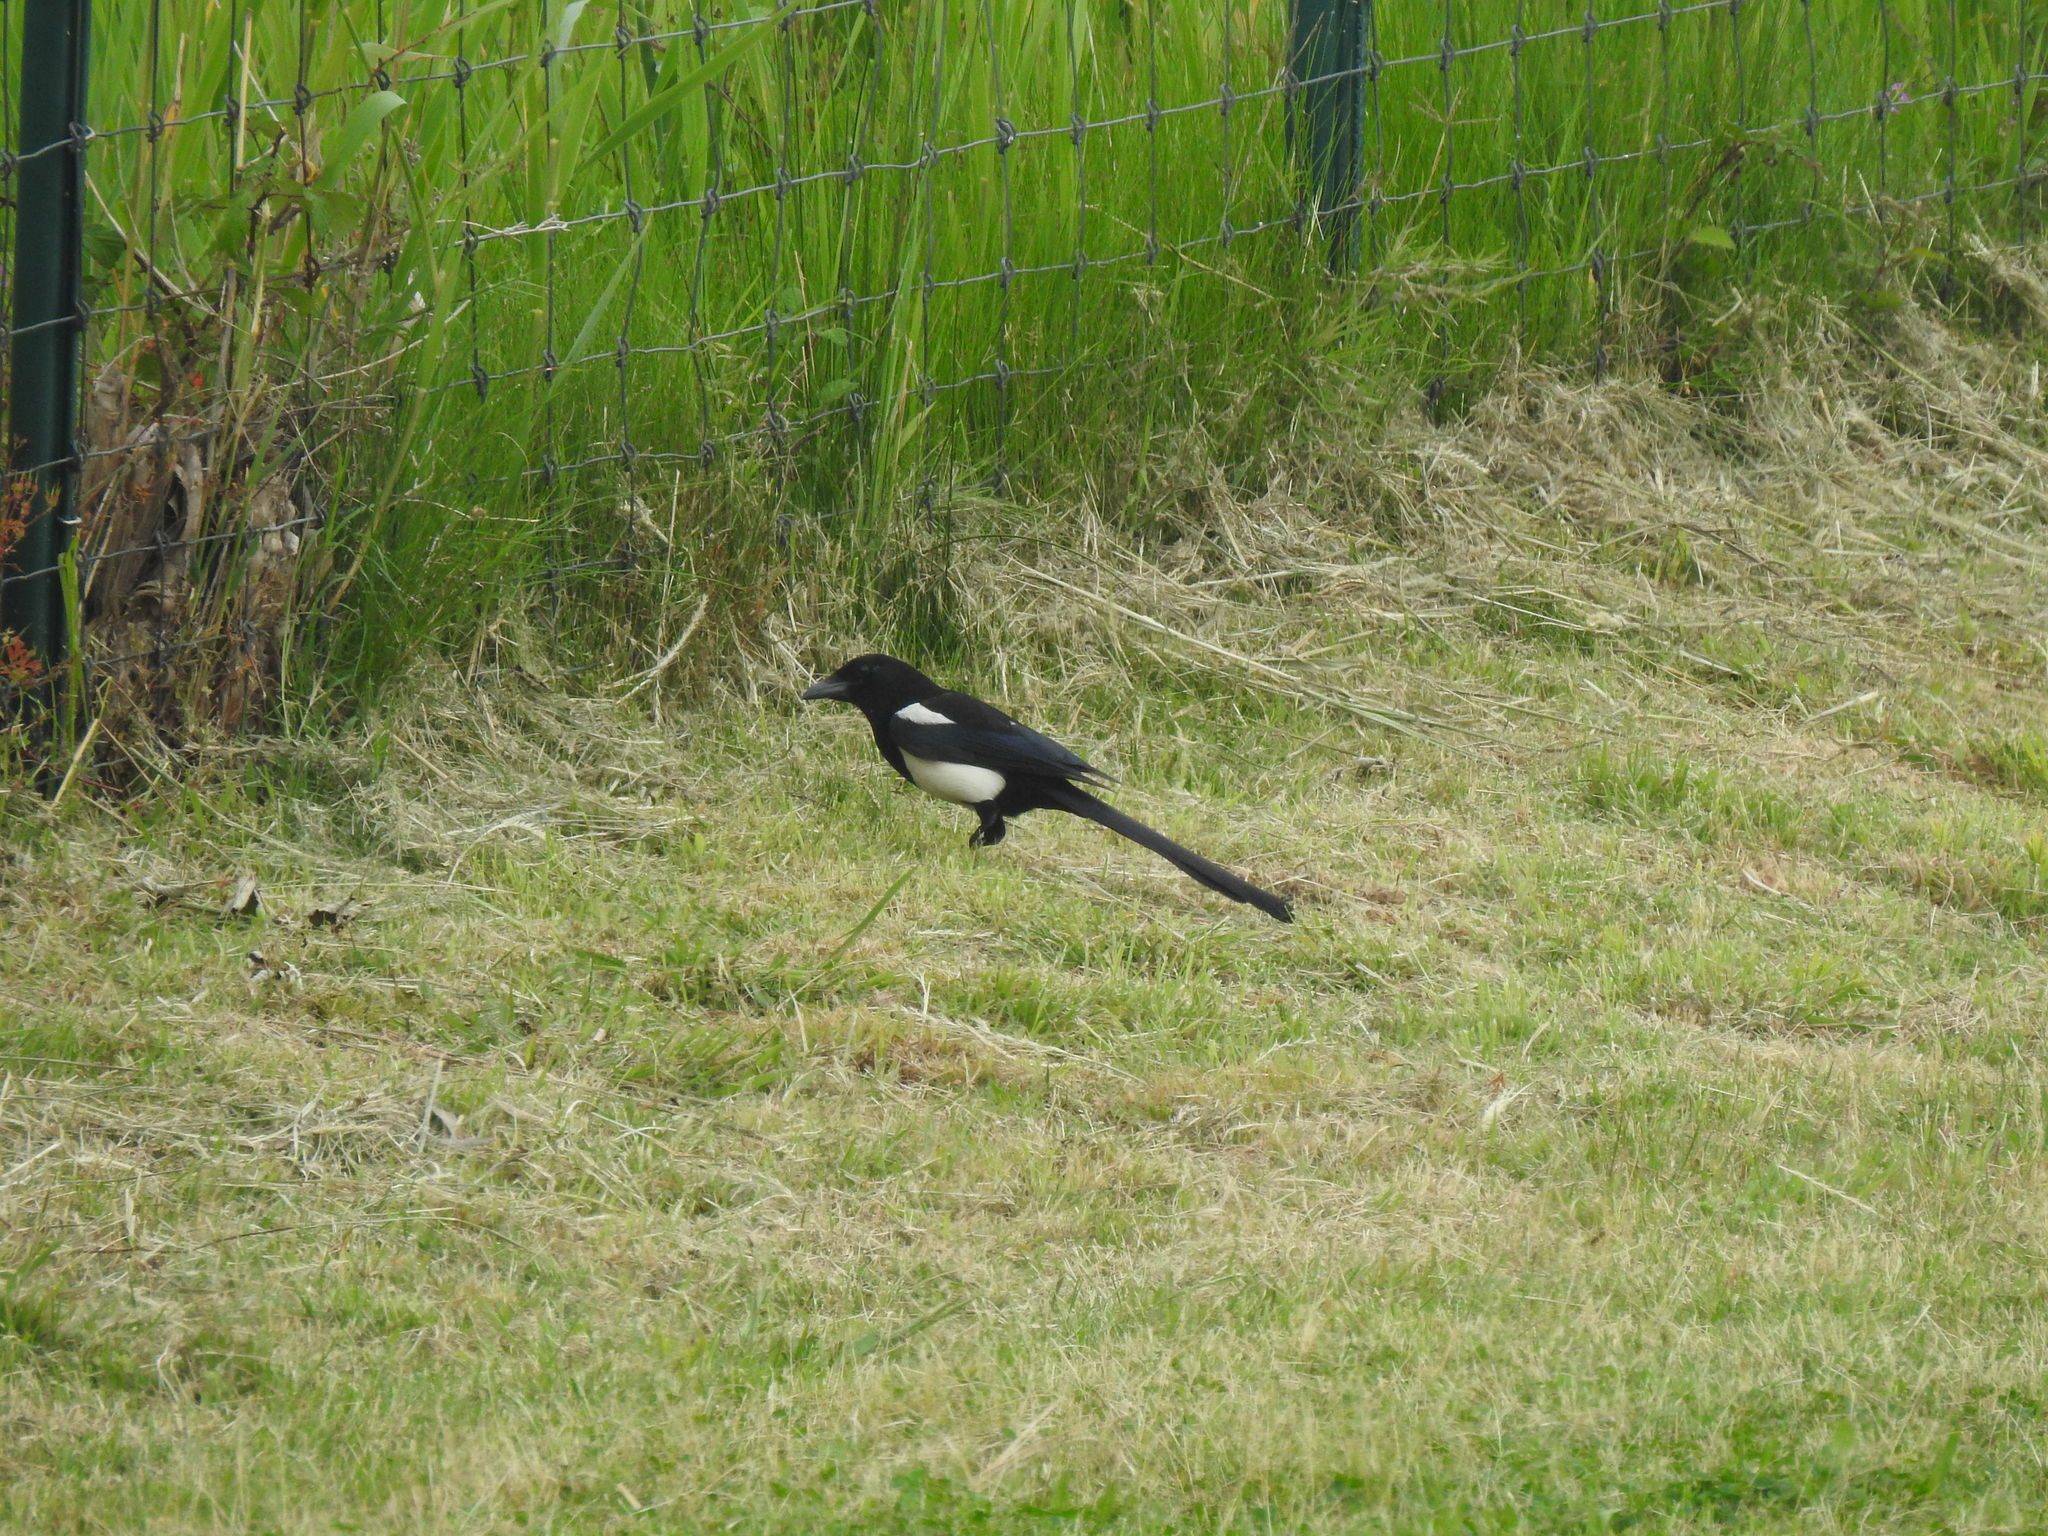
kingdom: Animalia
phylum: Chordata
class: Aves
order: Passeriformes
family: Corvidae
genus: Pica
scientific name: Pica pica
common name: Eurasian magpie
